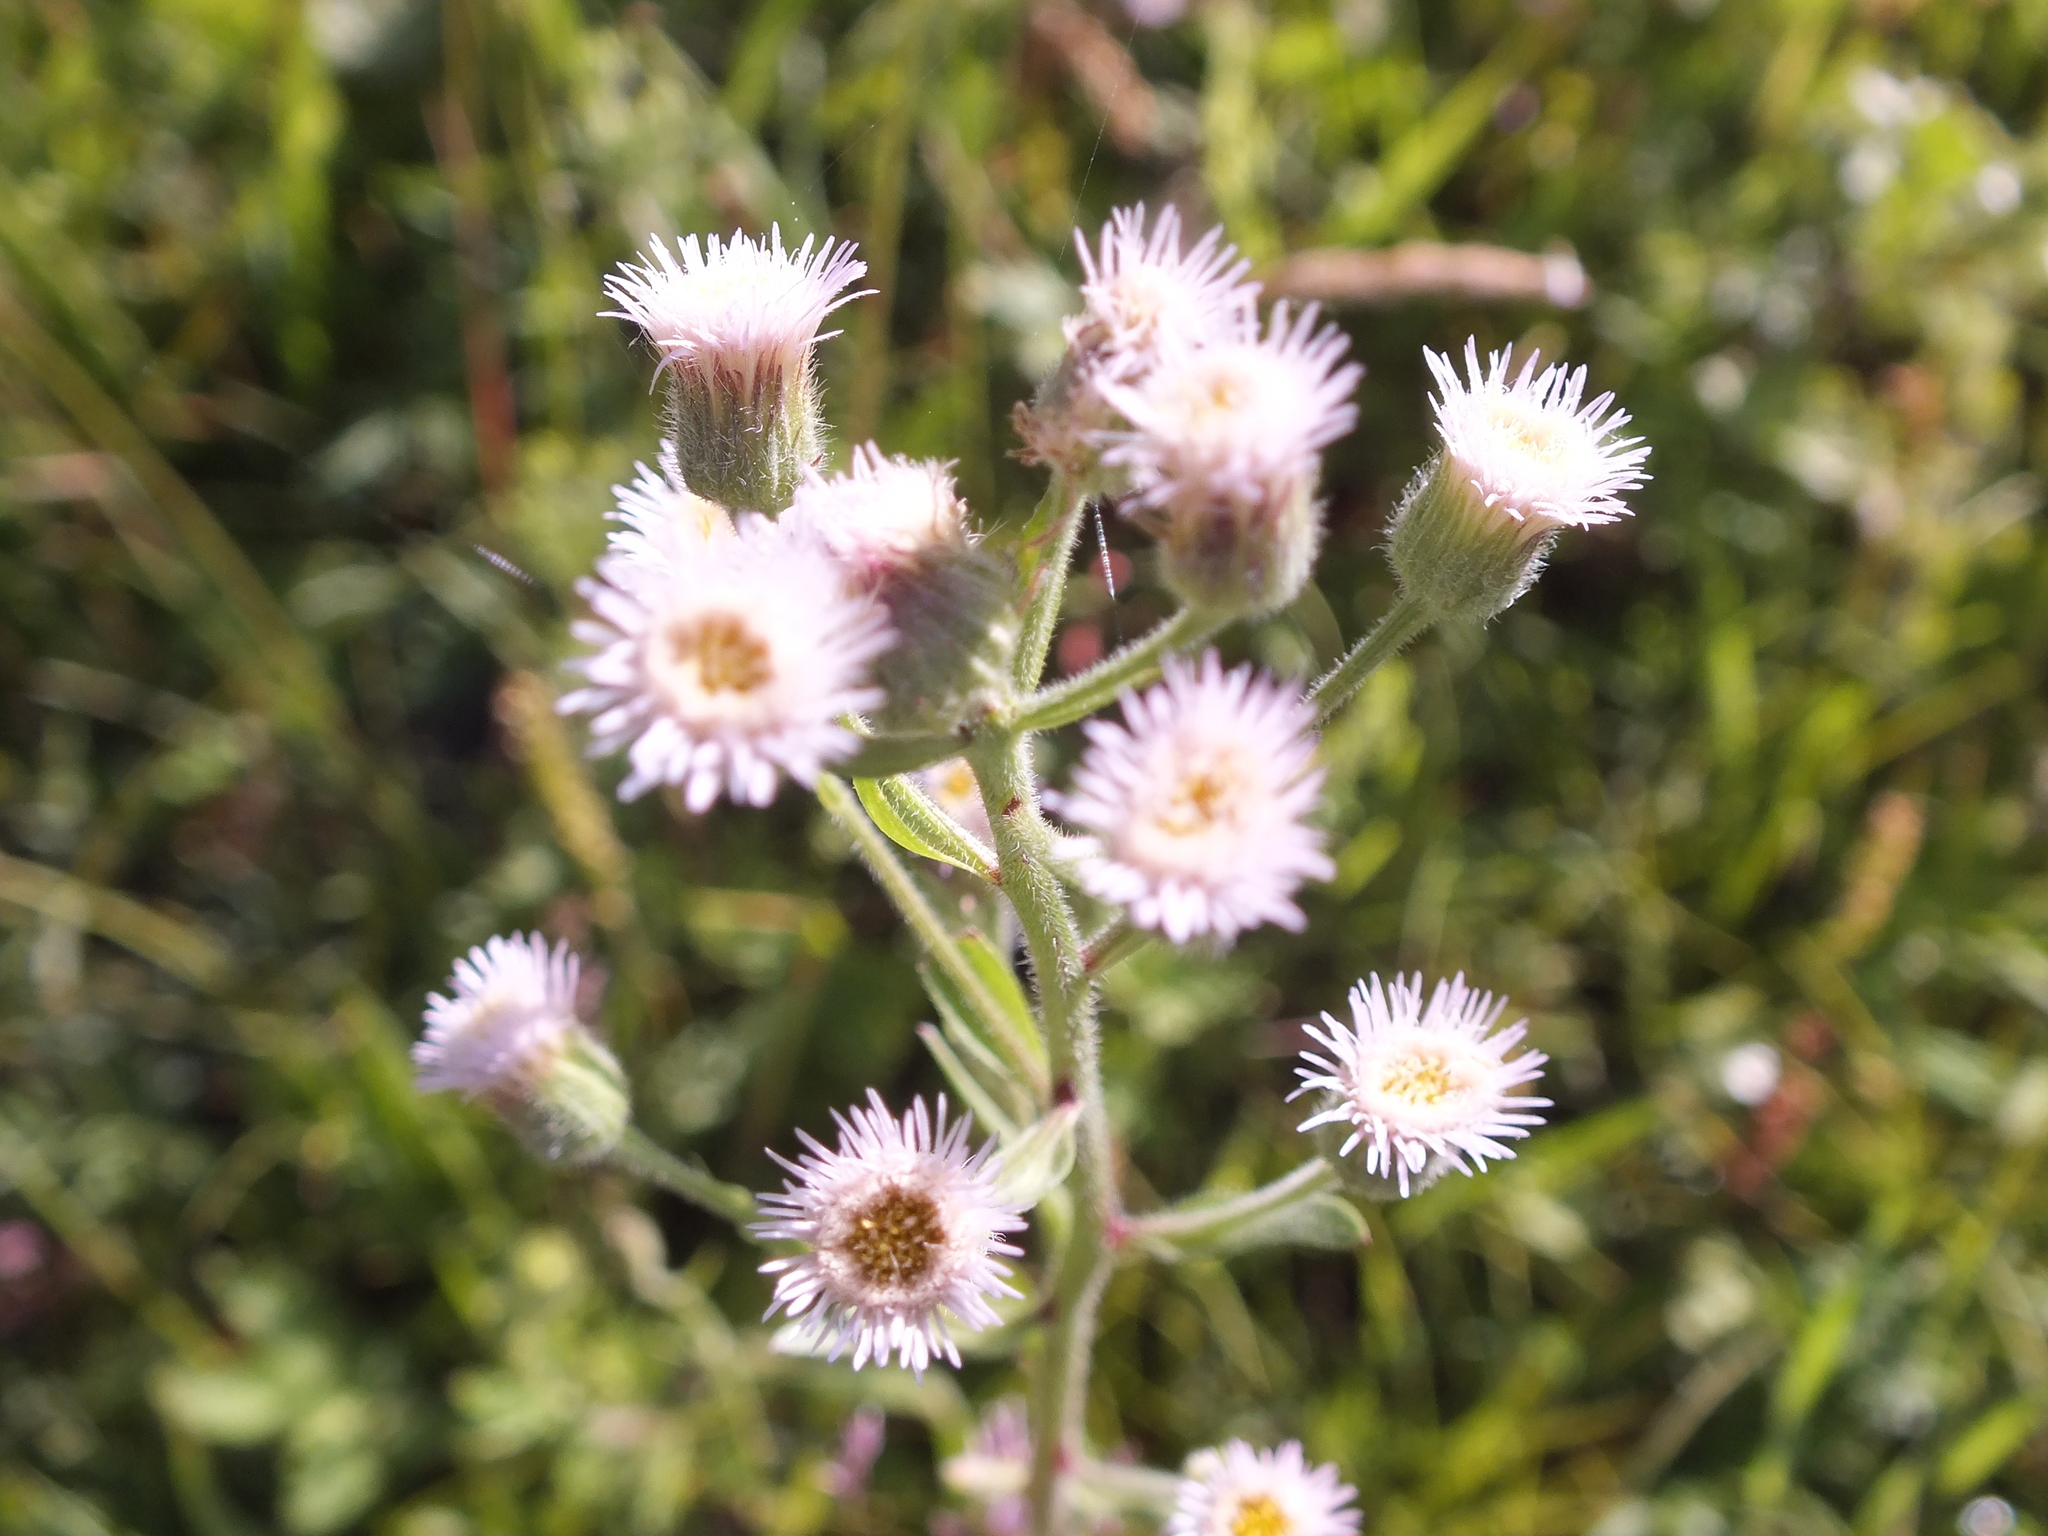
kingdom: Plantae
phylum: Tracheophyta
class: Magnoliopsida
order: Asterales
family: Asteraceae
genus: Erigeron
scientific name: Erigeron acris
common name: Blue fleabane
